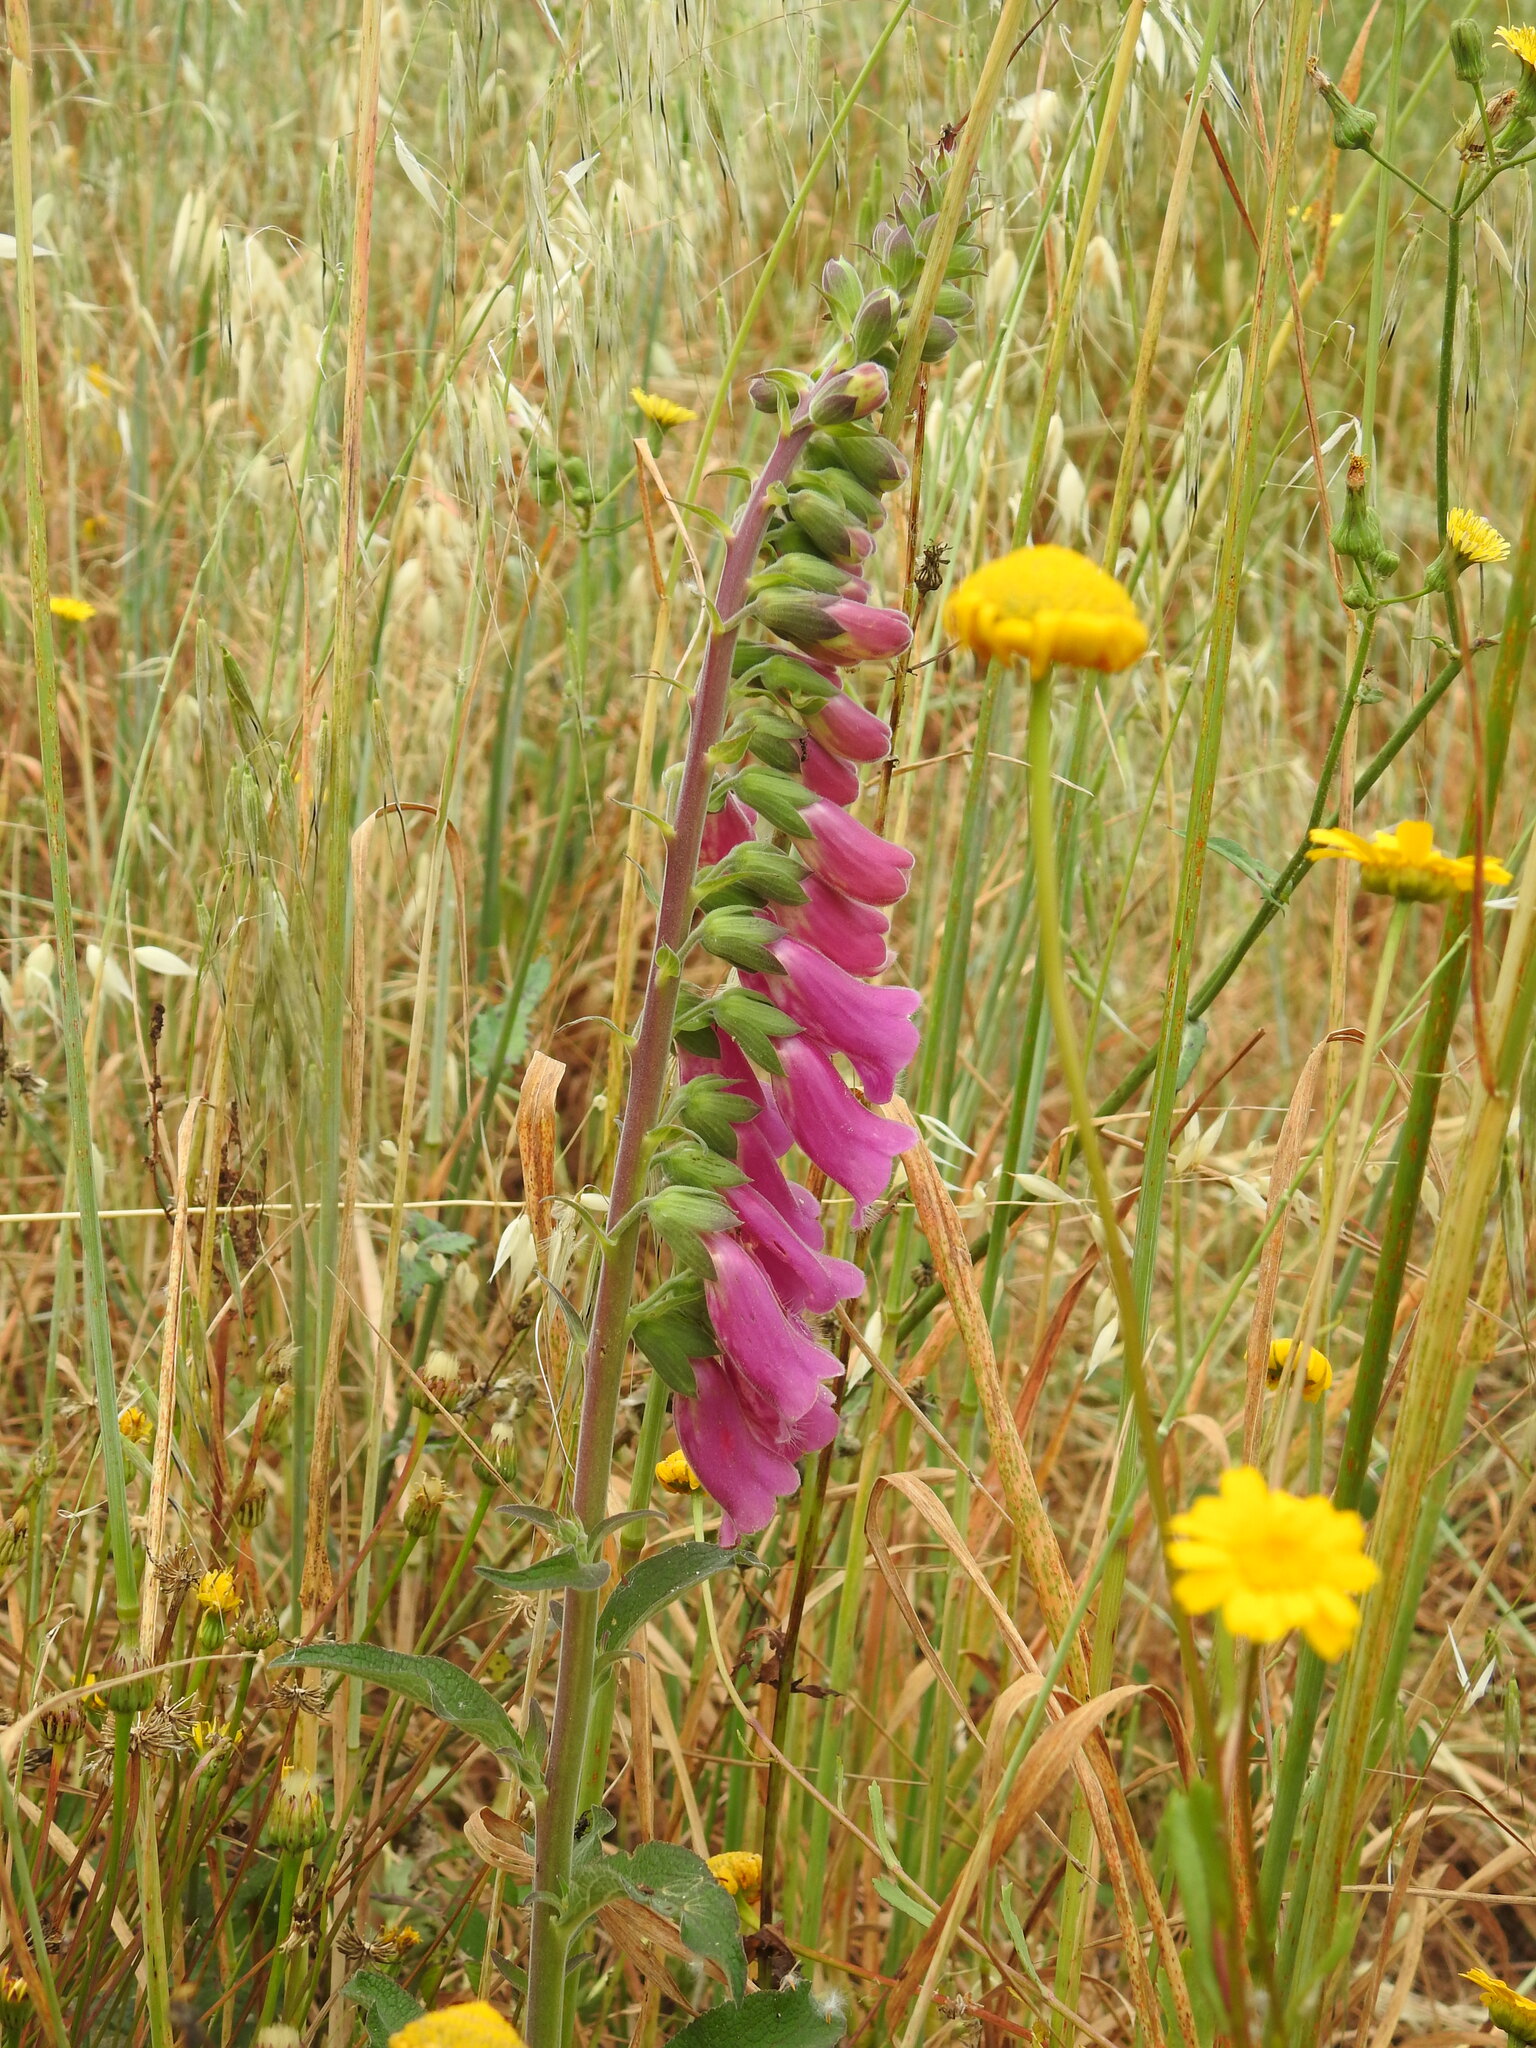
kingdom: Plantae
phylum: Tracheophyta
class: Magnoliopsida
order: Lamiales
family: Plantaginaceae
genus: Digitalis
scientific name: Digitalis purpurea
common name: Foxglove
